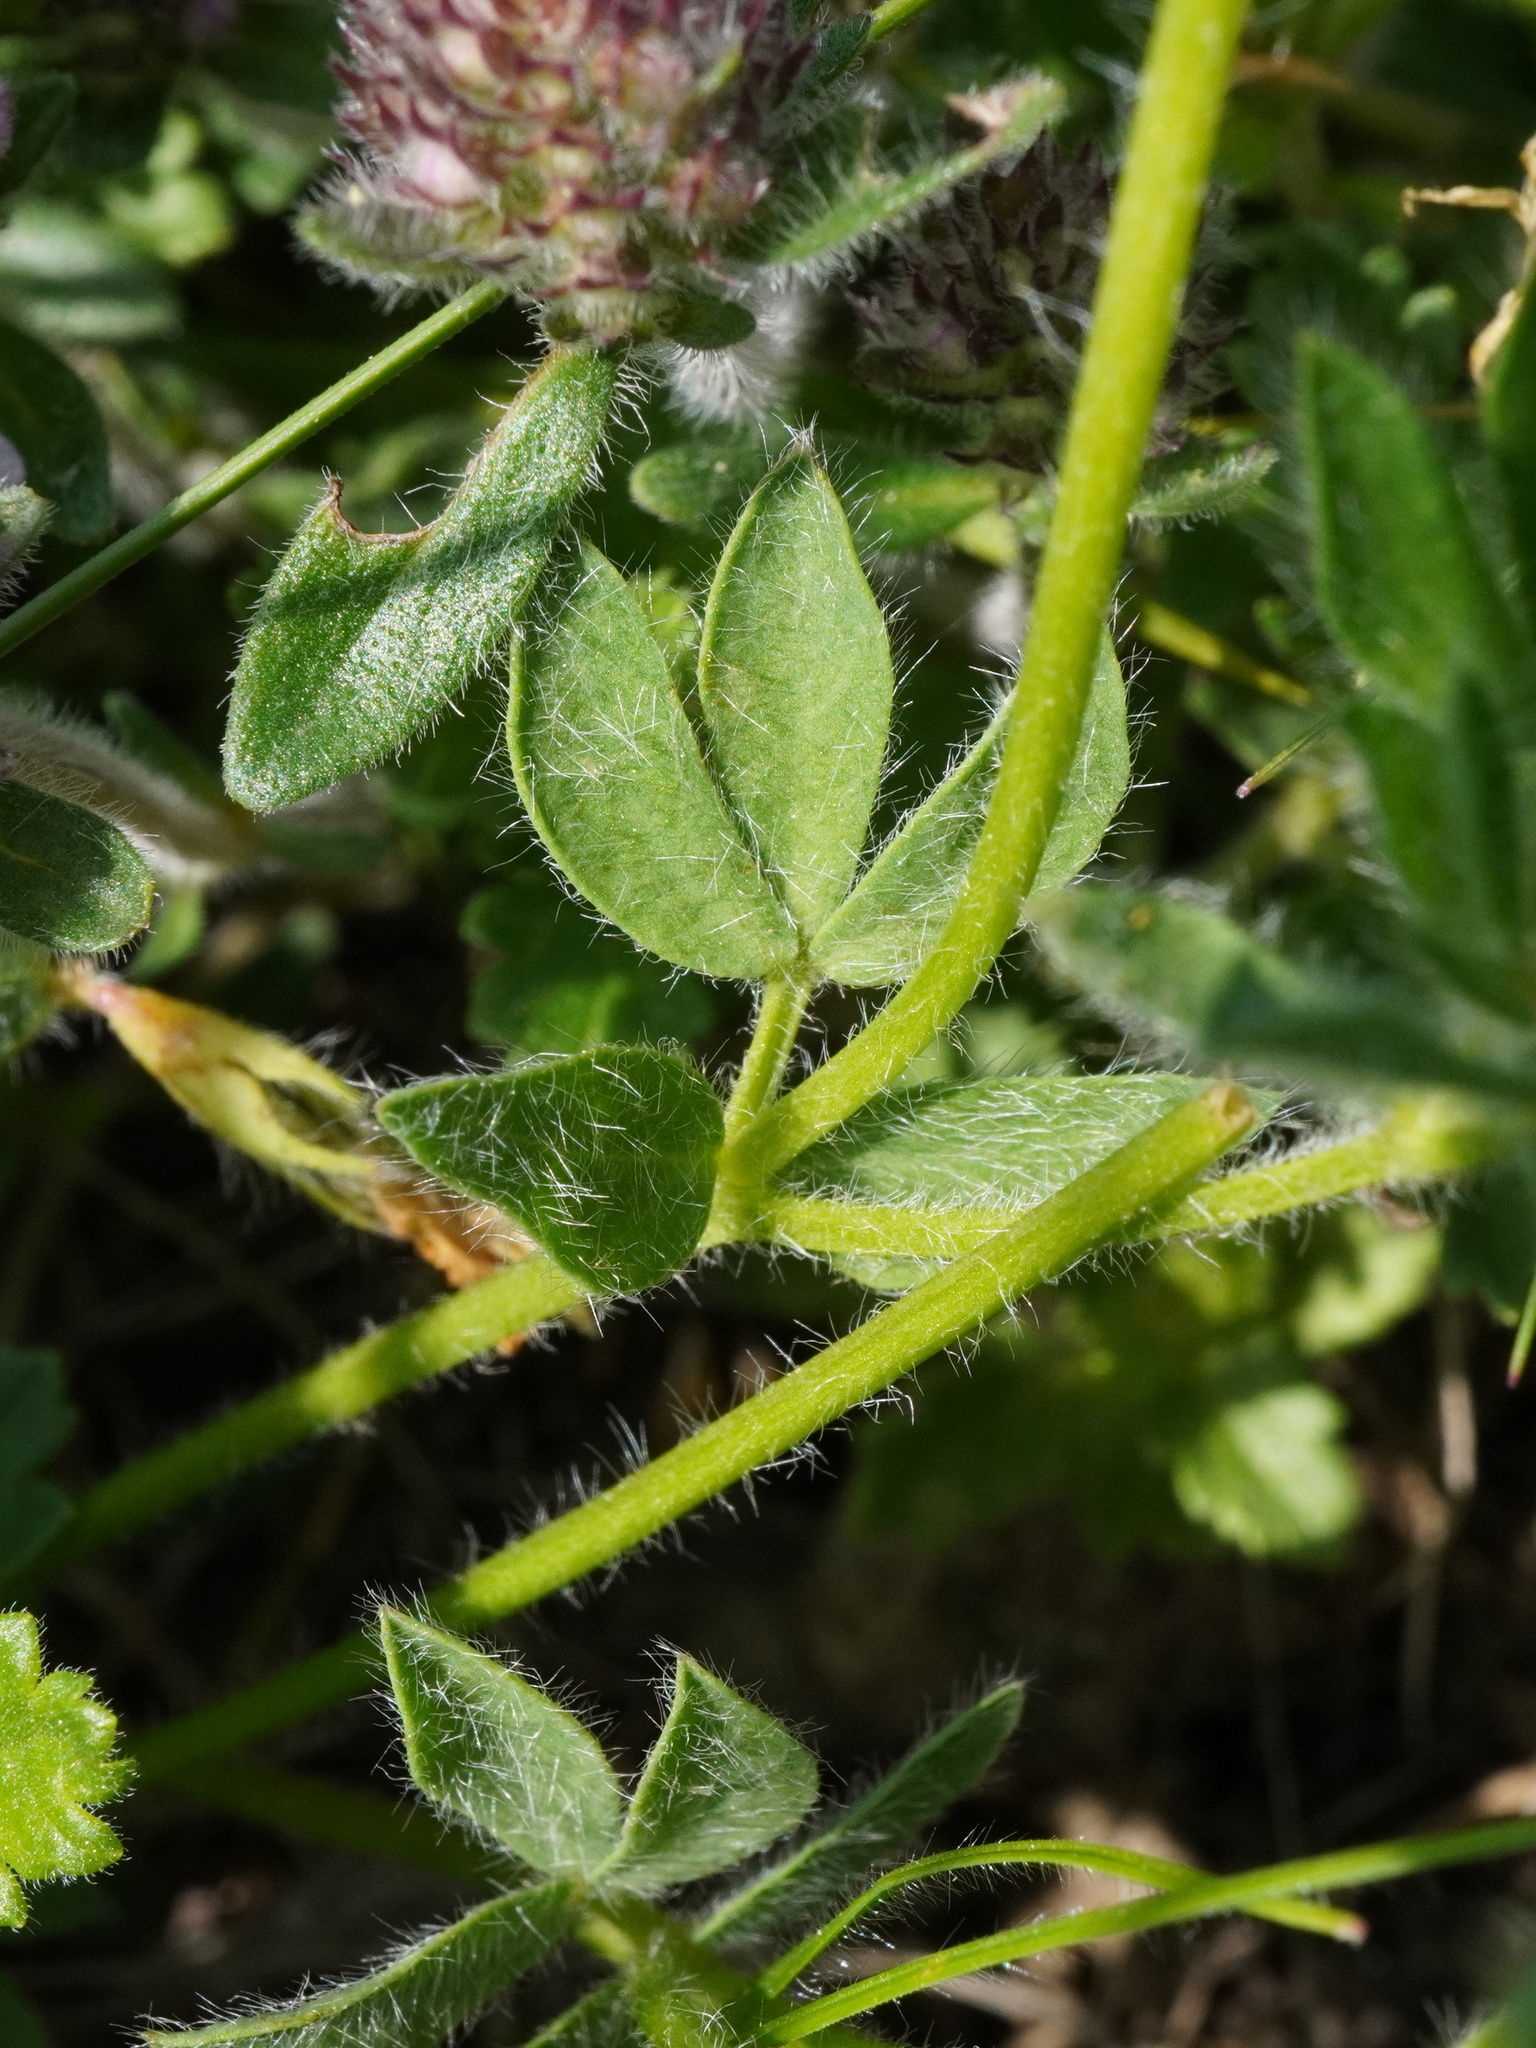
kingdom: Plantae
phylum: Tracheophyta
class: Magnoliopsida
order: Fabales
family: Fabaceae
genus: Lotus
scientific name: Lotus borbasii
